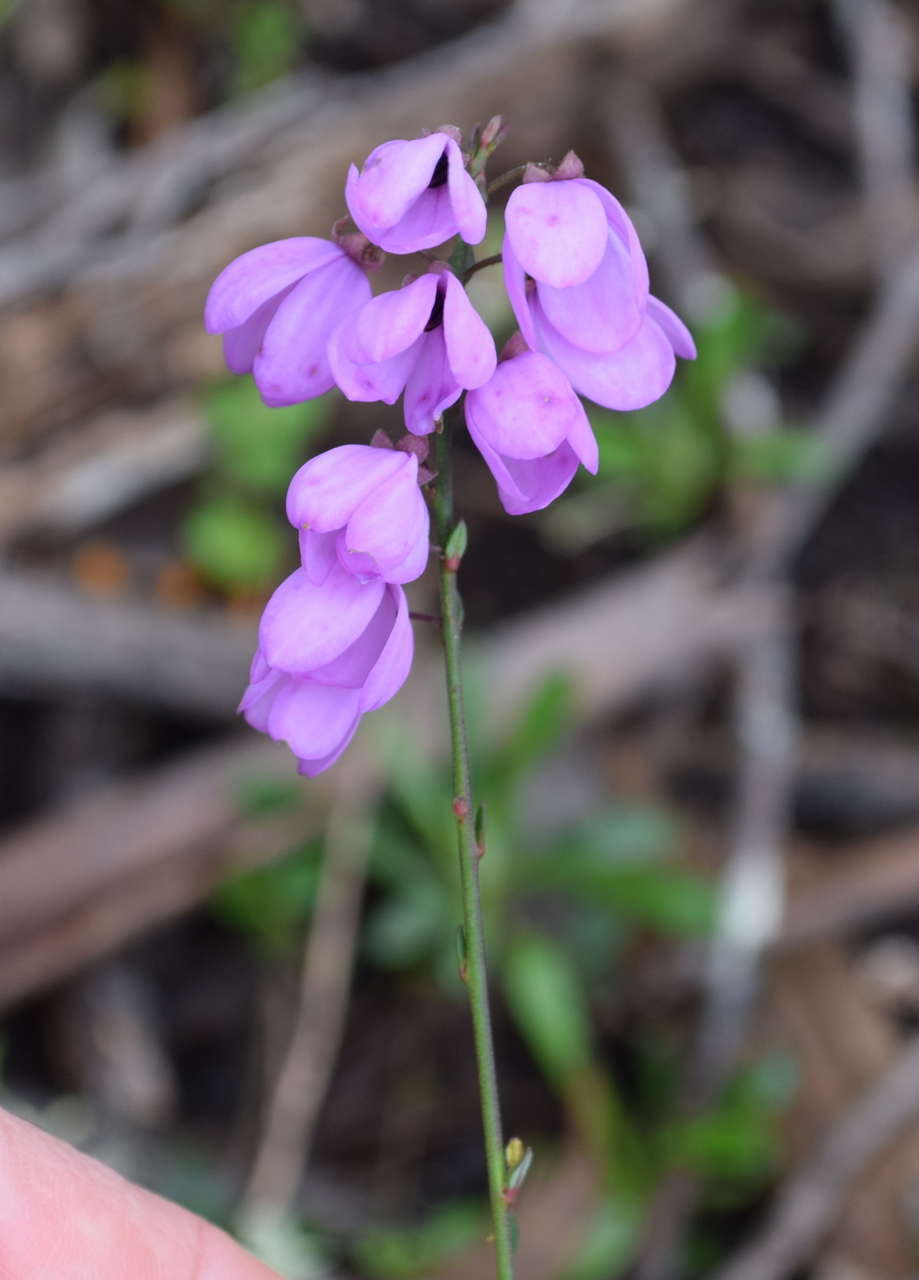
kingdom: Plantae
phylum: Tracheophyta
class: Magnoliopsida
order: Oxalidales
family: Elaeocarpaceae
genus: Tetratheca
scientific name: Tetratheca ciliata
